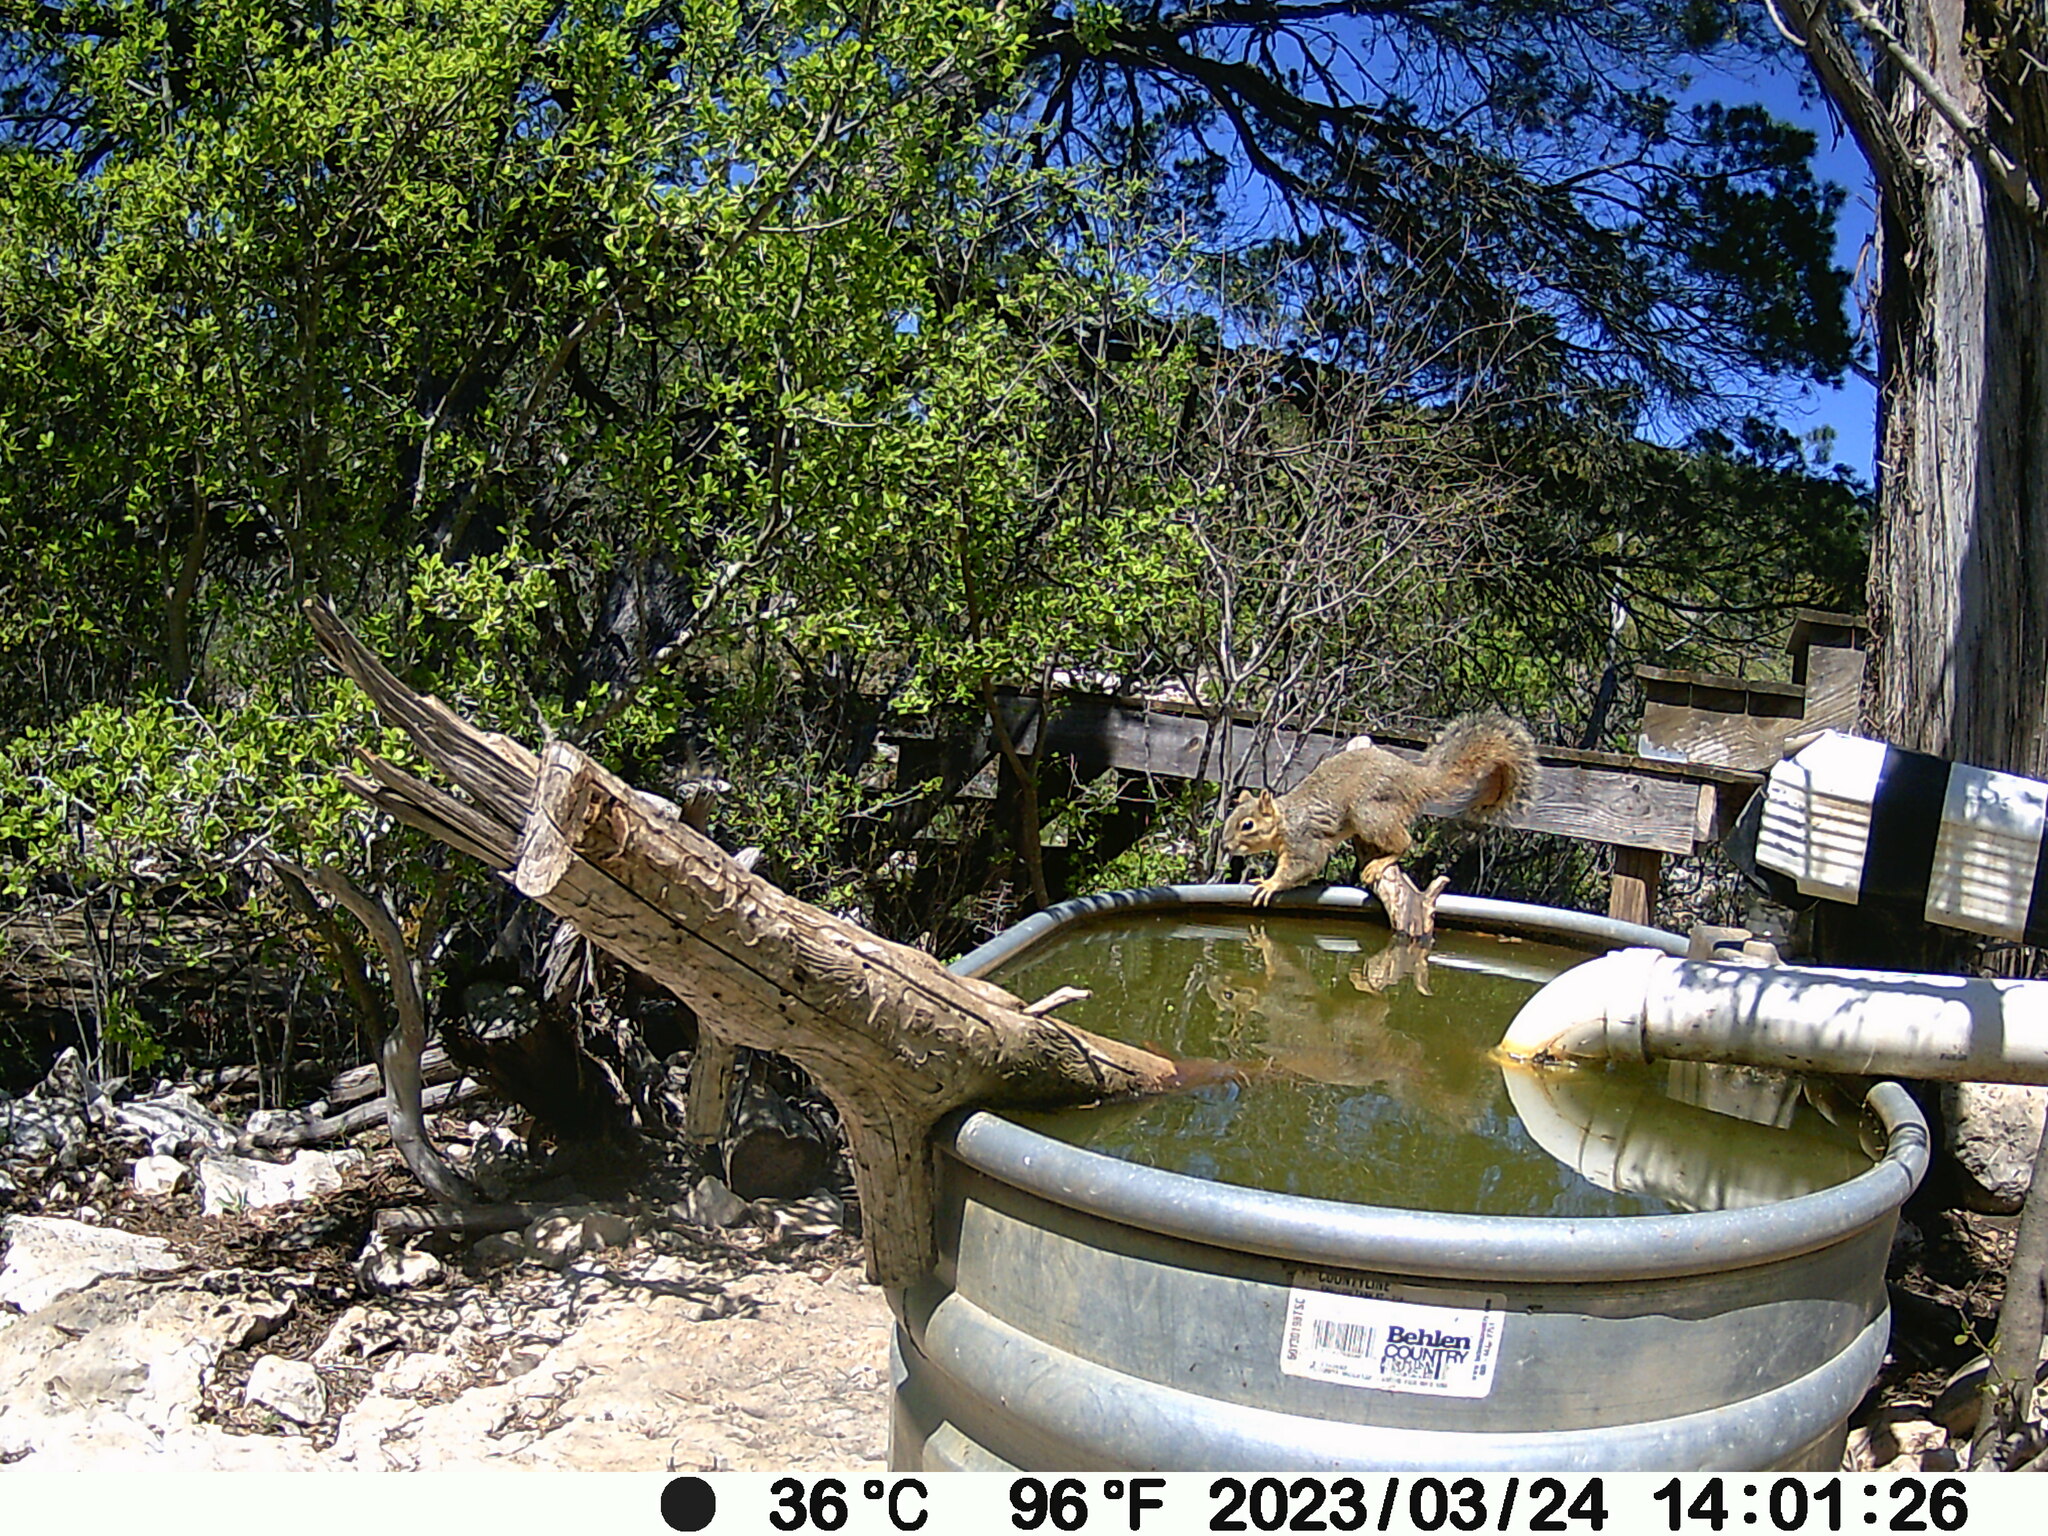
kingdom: Animalia
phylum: Chordata
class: Mammalia
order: Rodentia
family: Sciuridae
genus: Sciurus
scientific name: Sciurus niger
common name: Fox squirrel
